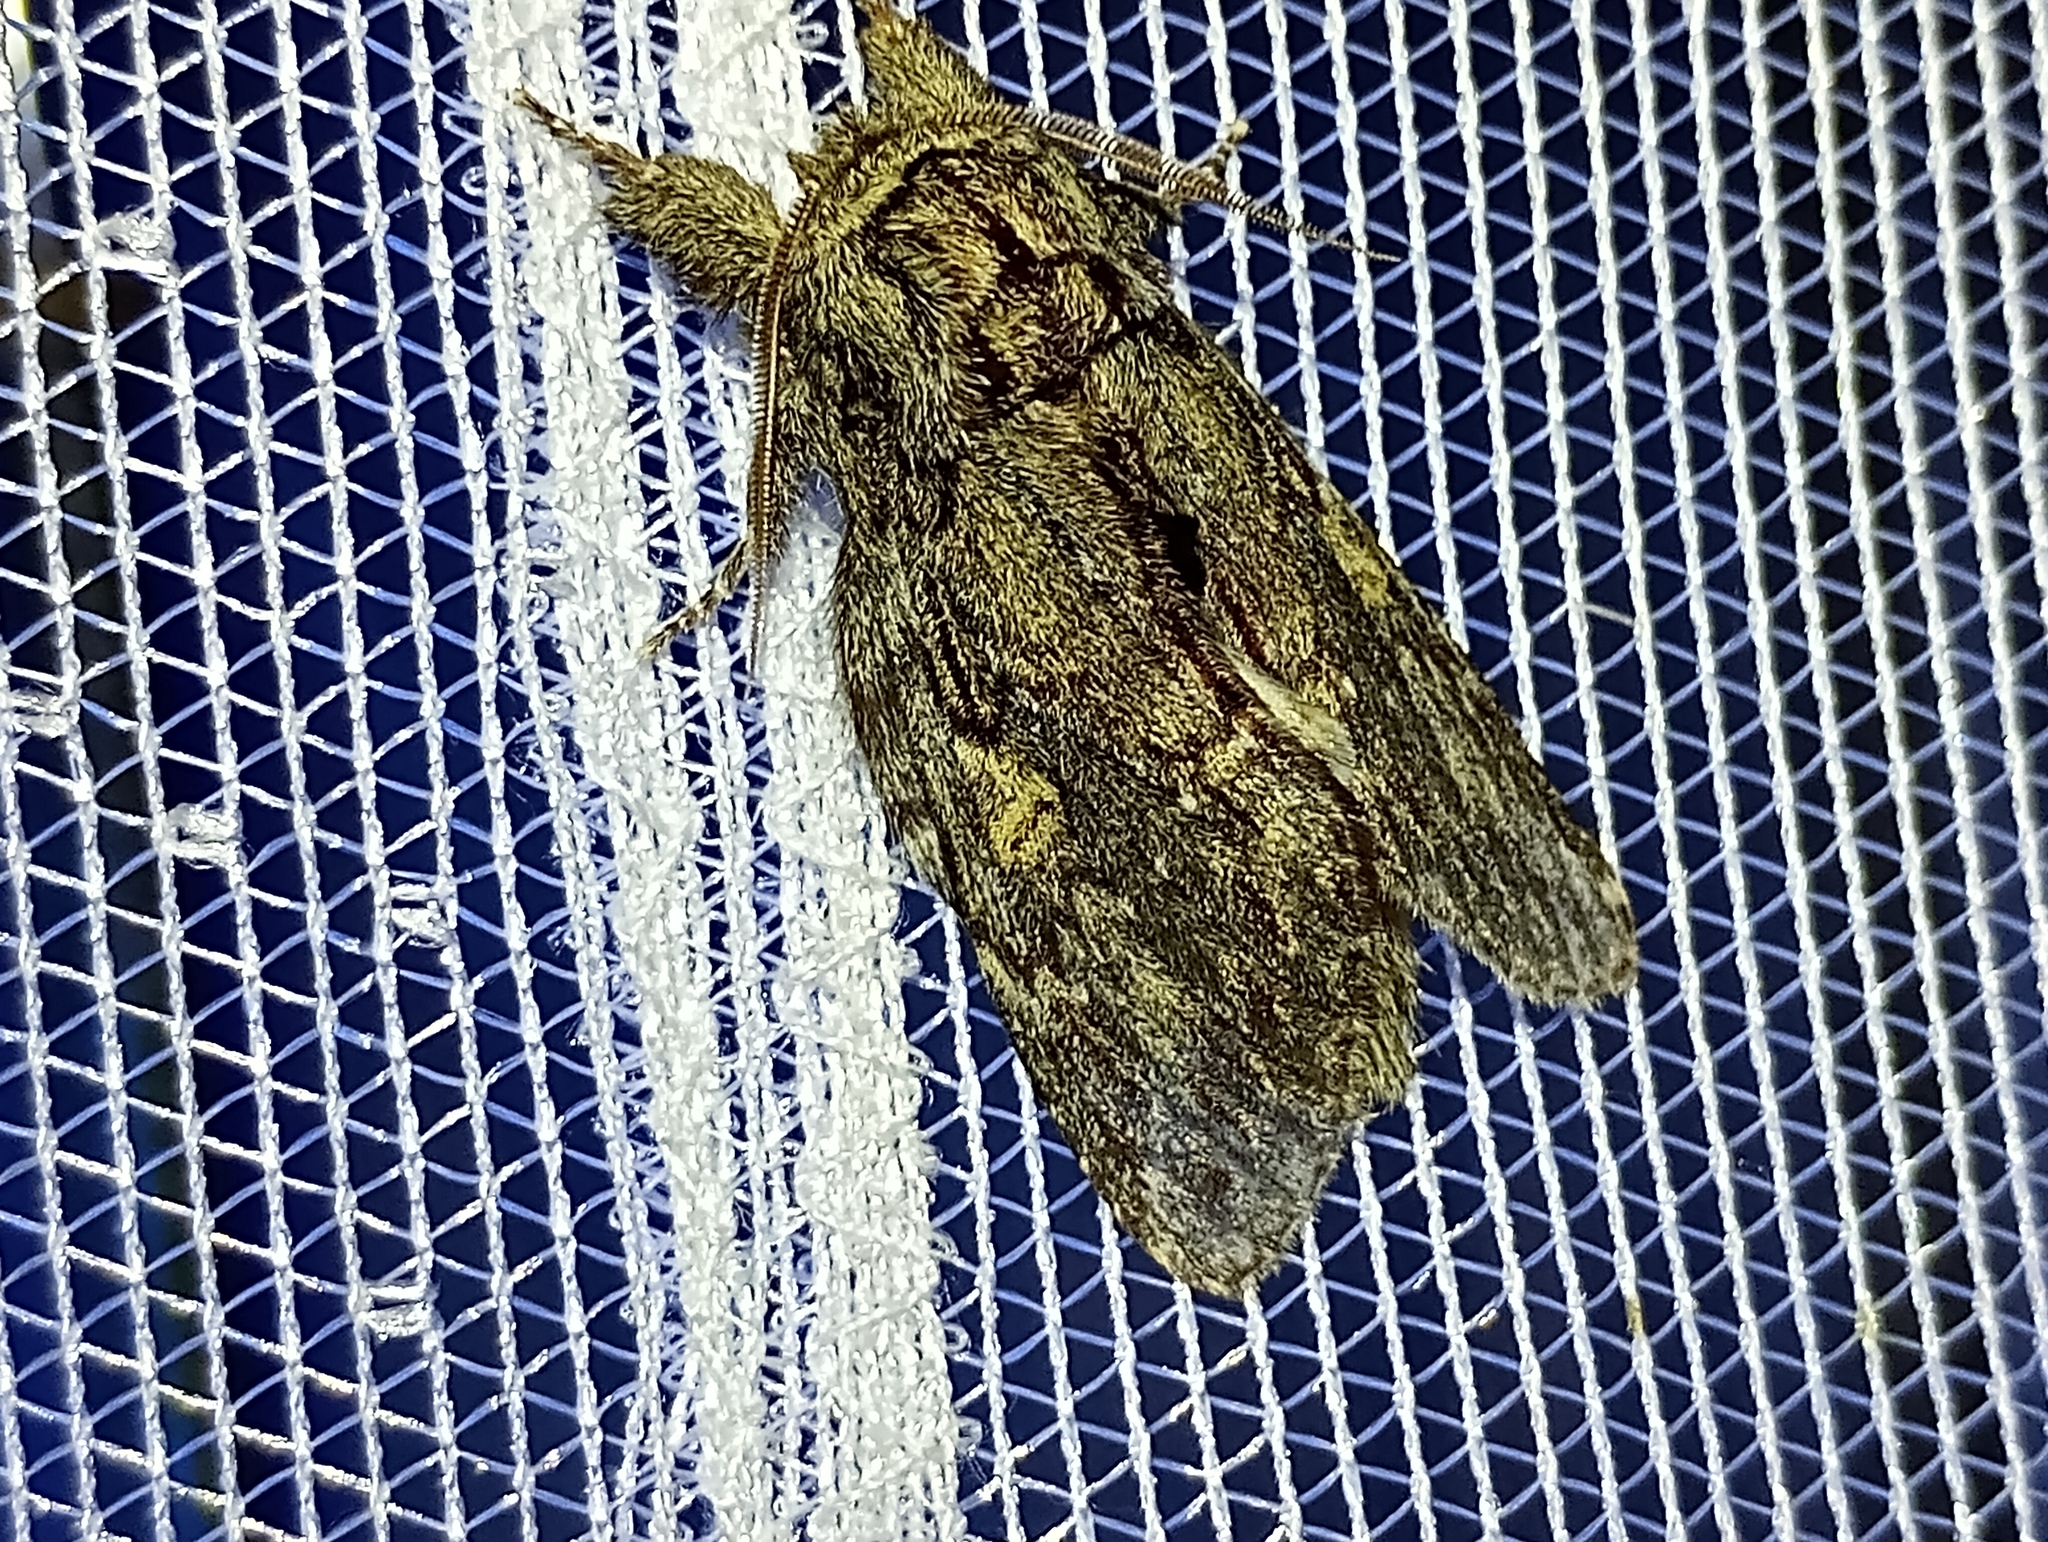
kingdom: Animalia
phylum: Arthropoda
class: Insecta
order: Lepidoptera
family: Notodontidae
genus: Peridea
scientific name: Peridea anceps
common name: Great prominent
